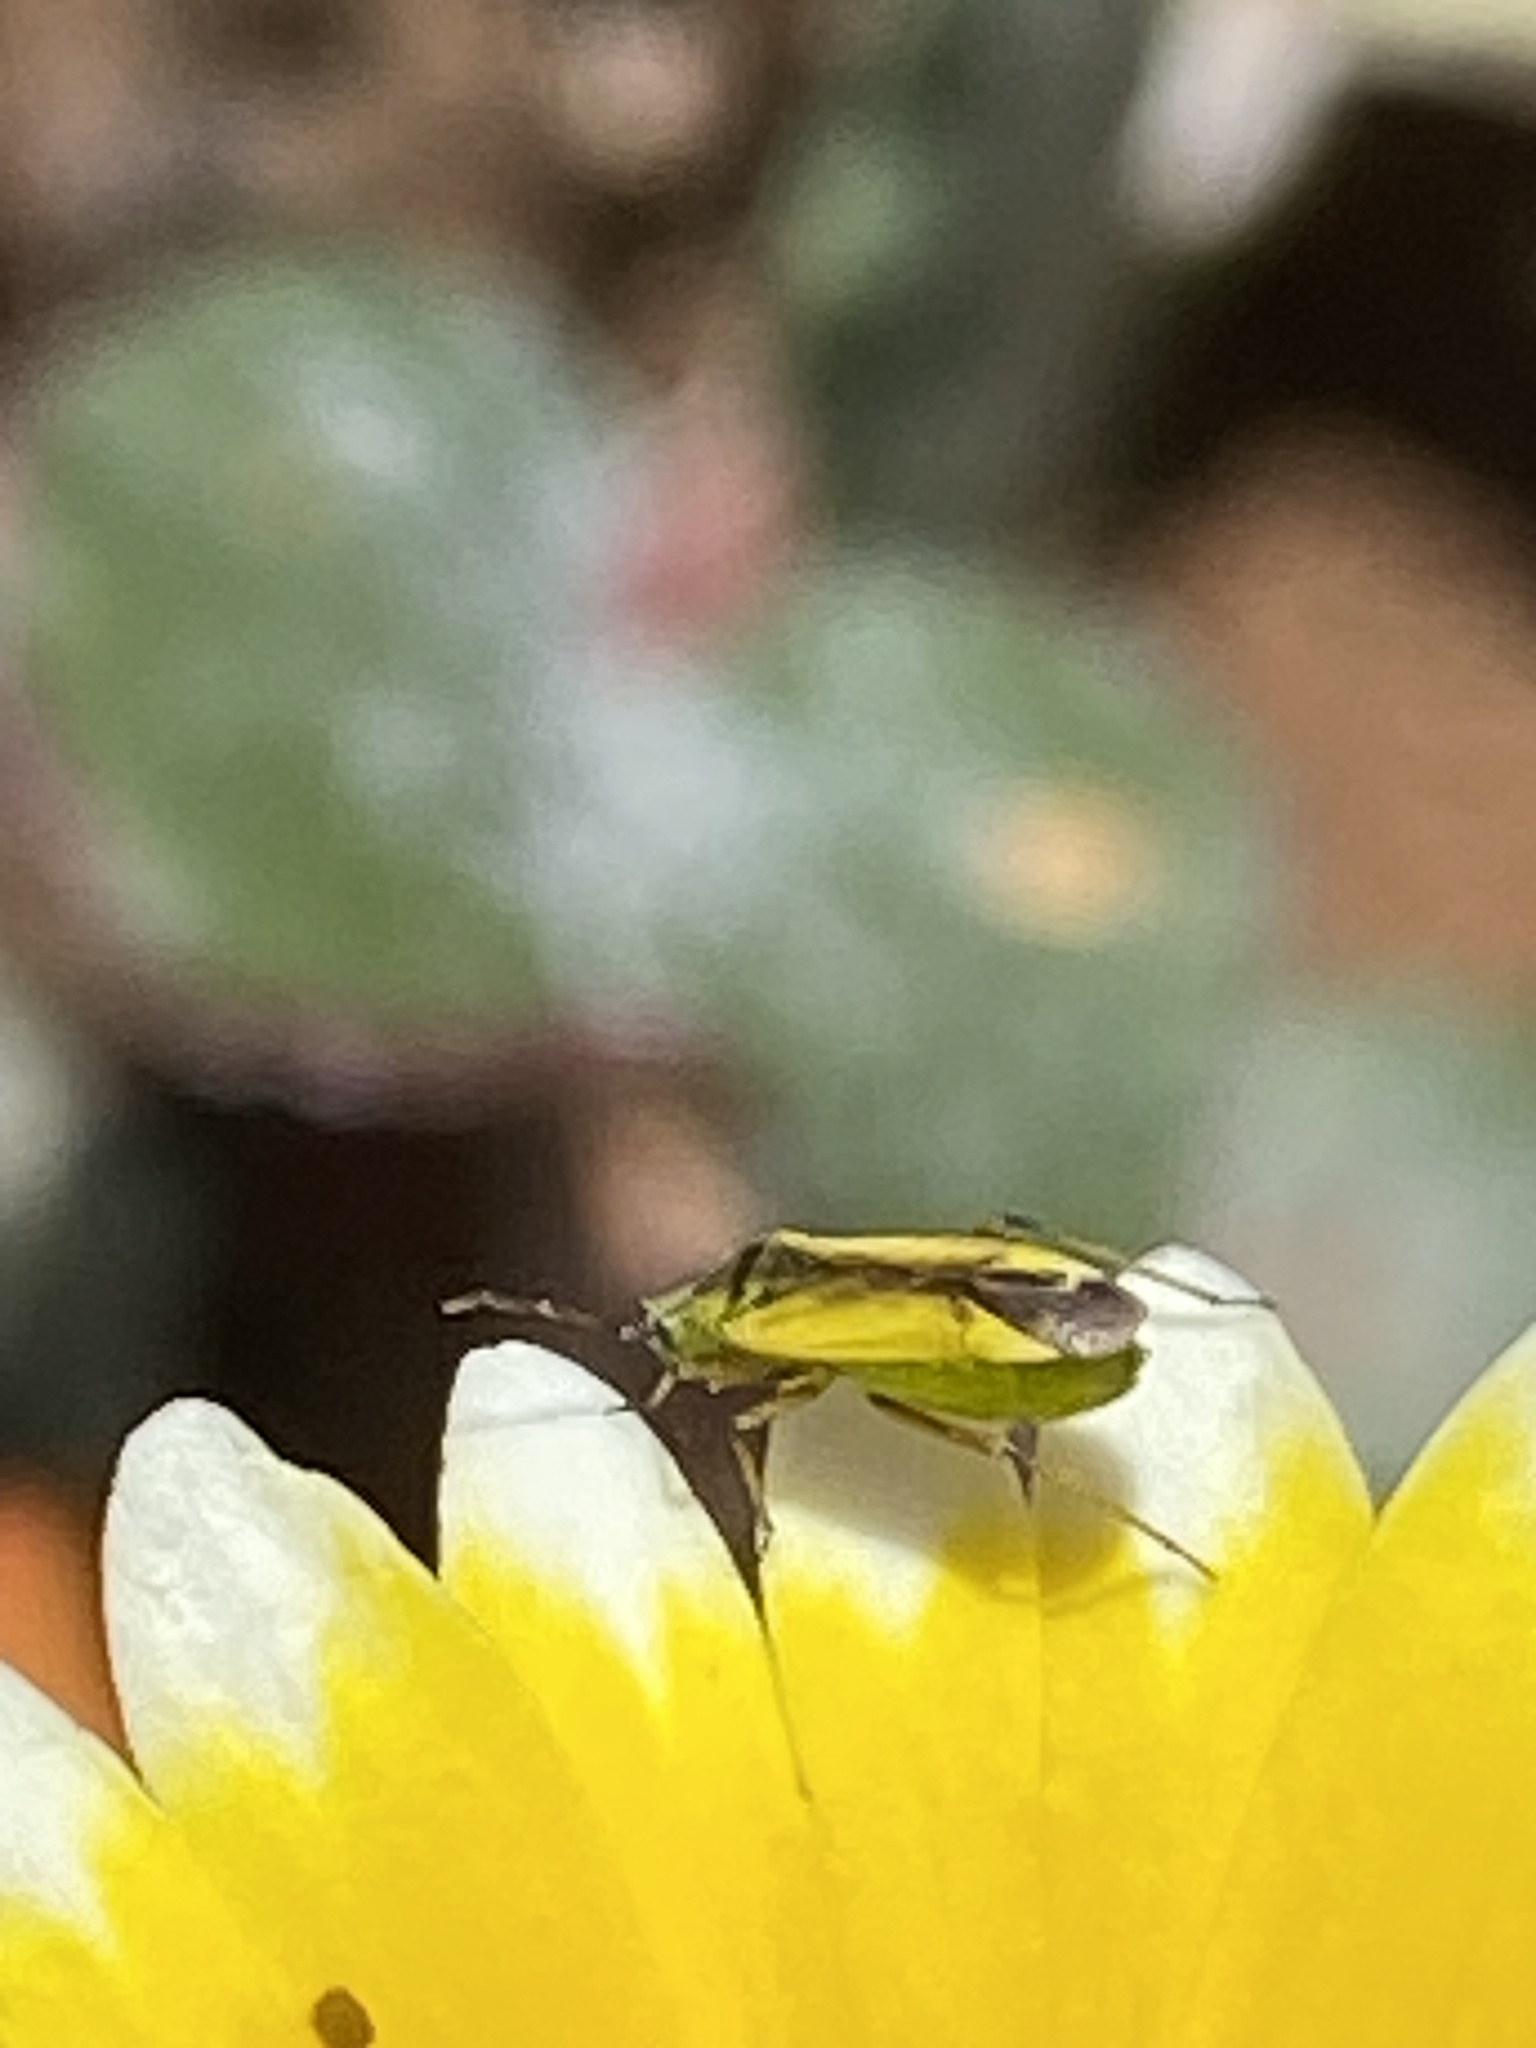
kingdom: Animalia
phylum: Arthropoda
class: Insecta
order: Hemiptera
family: Miridae
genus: Macrotylus
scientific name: Macrotylus dorsalis
